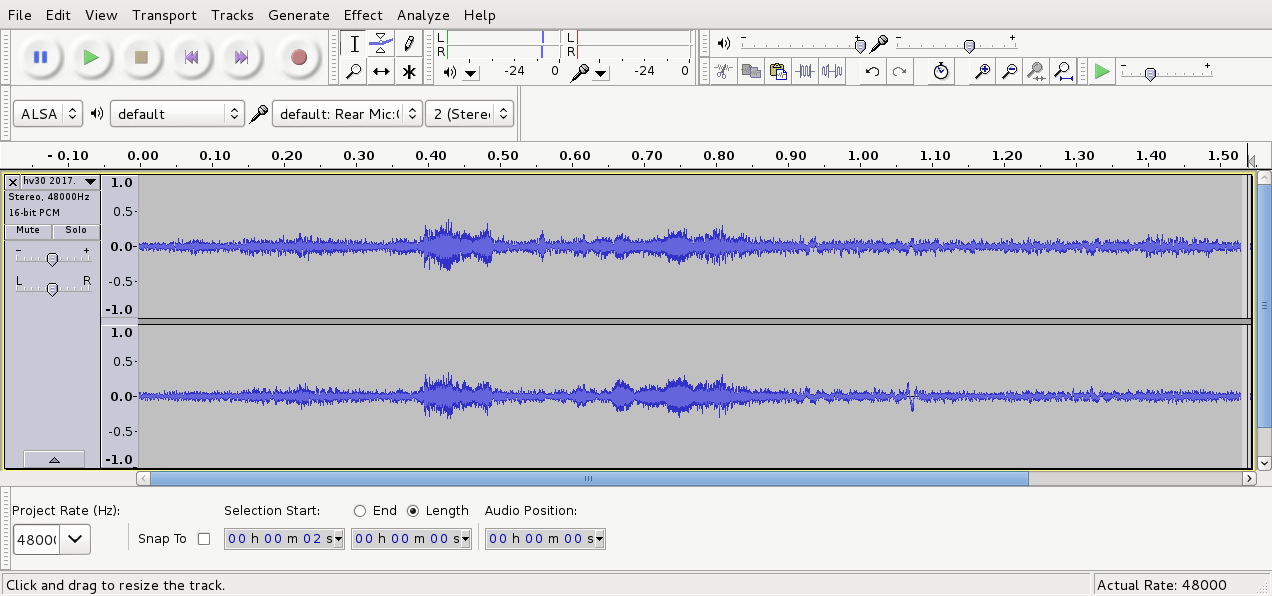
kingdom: Animalia
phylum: Chordata
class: Aves
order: Passeriformes
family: Turdidae
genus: Turdus
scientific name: Turdus philomelos
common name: Song thrush
